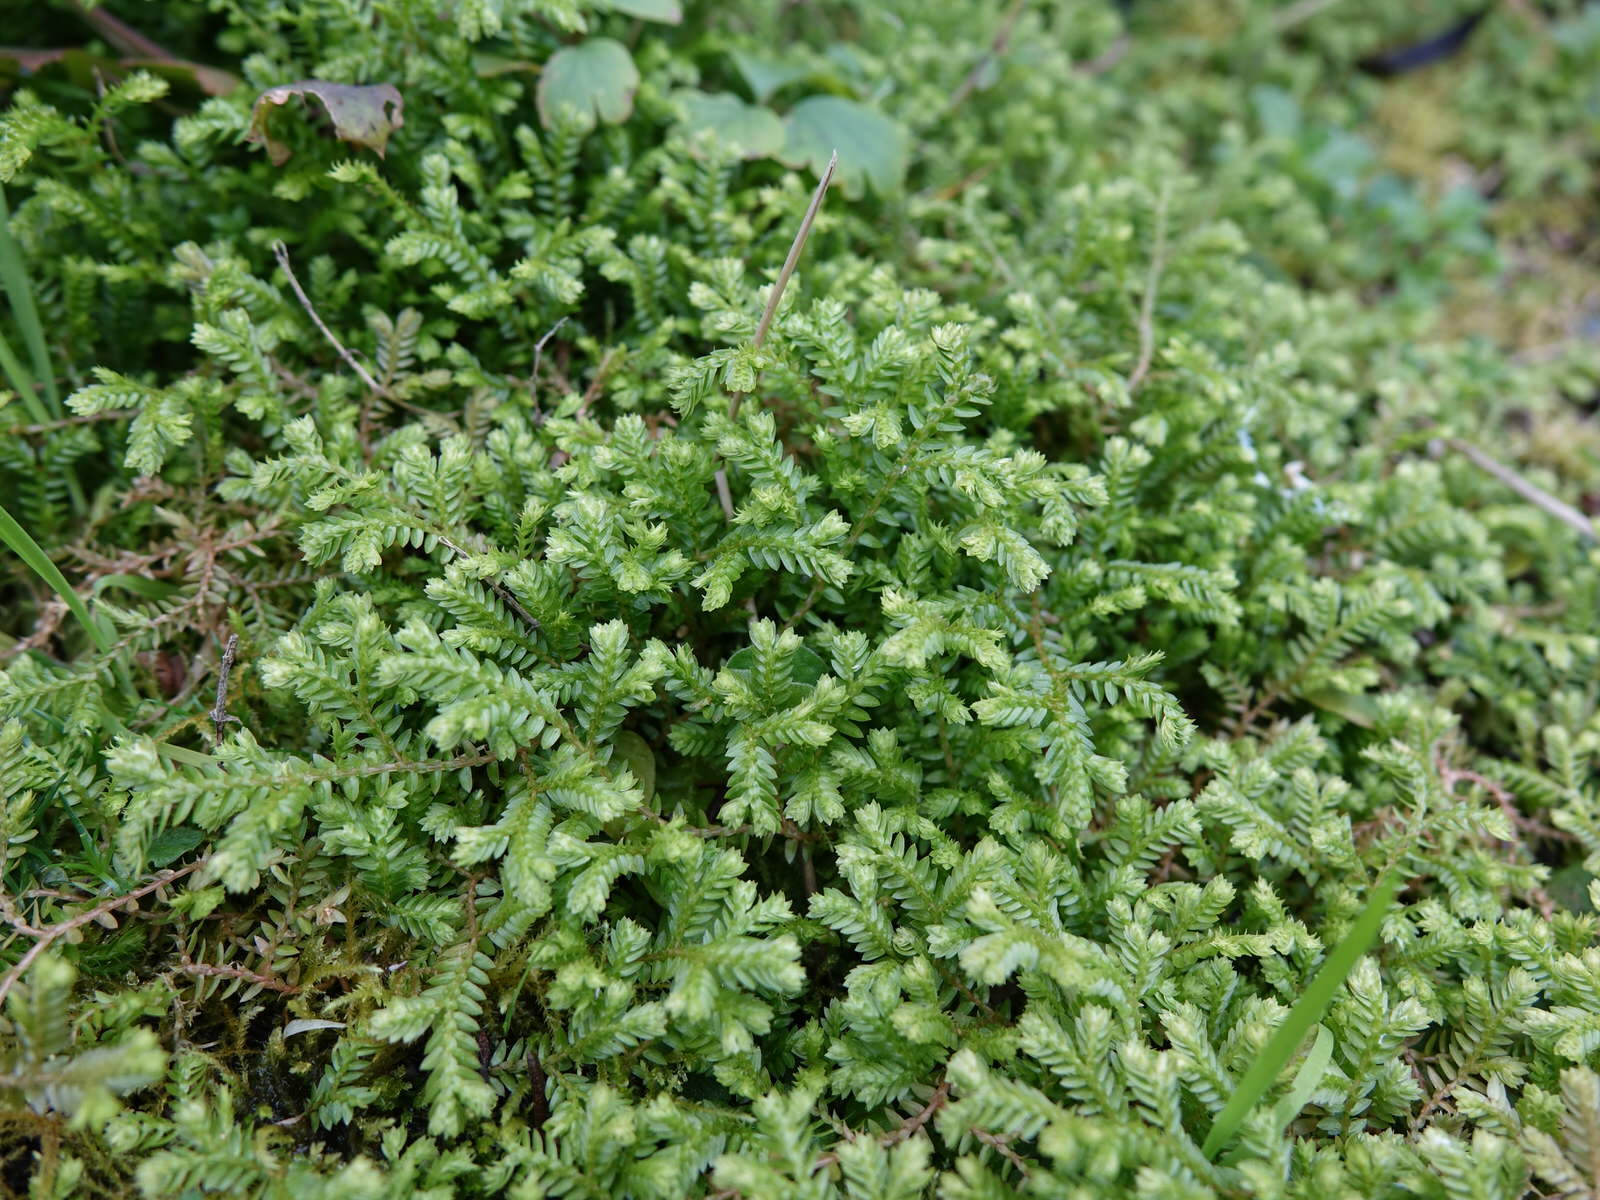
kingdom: Plantae
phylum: Tracheophyta
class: Lycopodiopsida
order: Selaginellales
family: Selaginellaceae
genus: Selaginella
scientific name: Selaginella kraussiana
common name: Krauss' spikemoss
